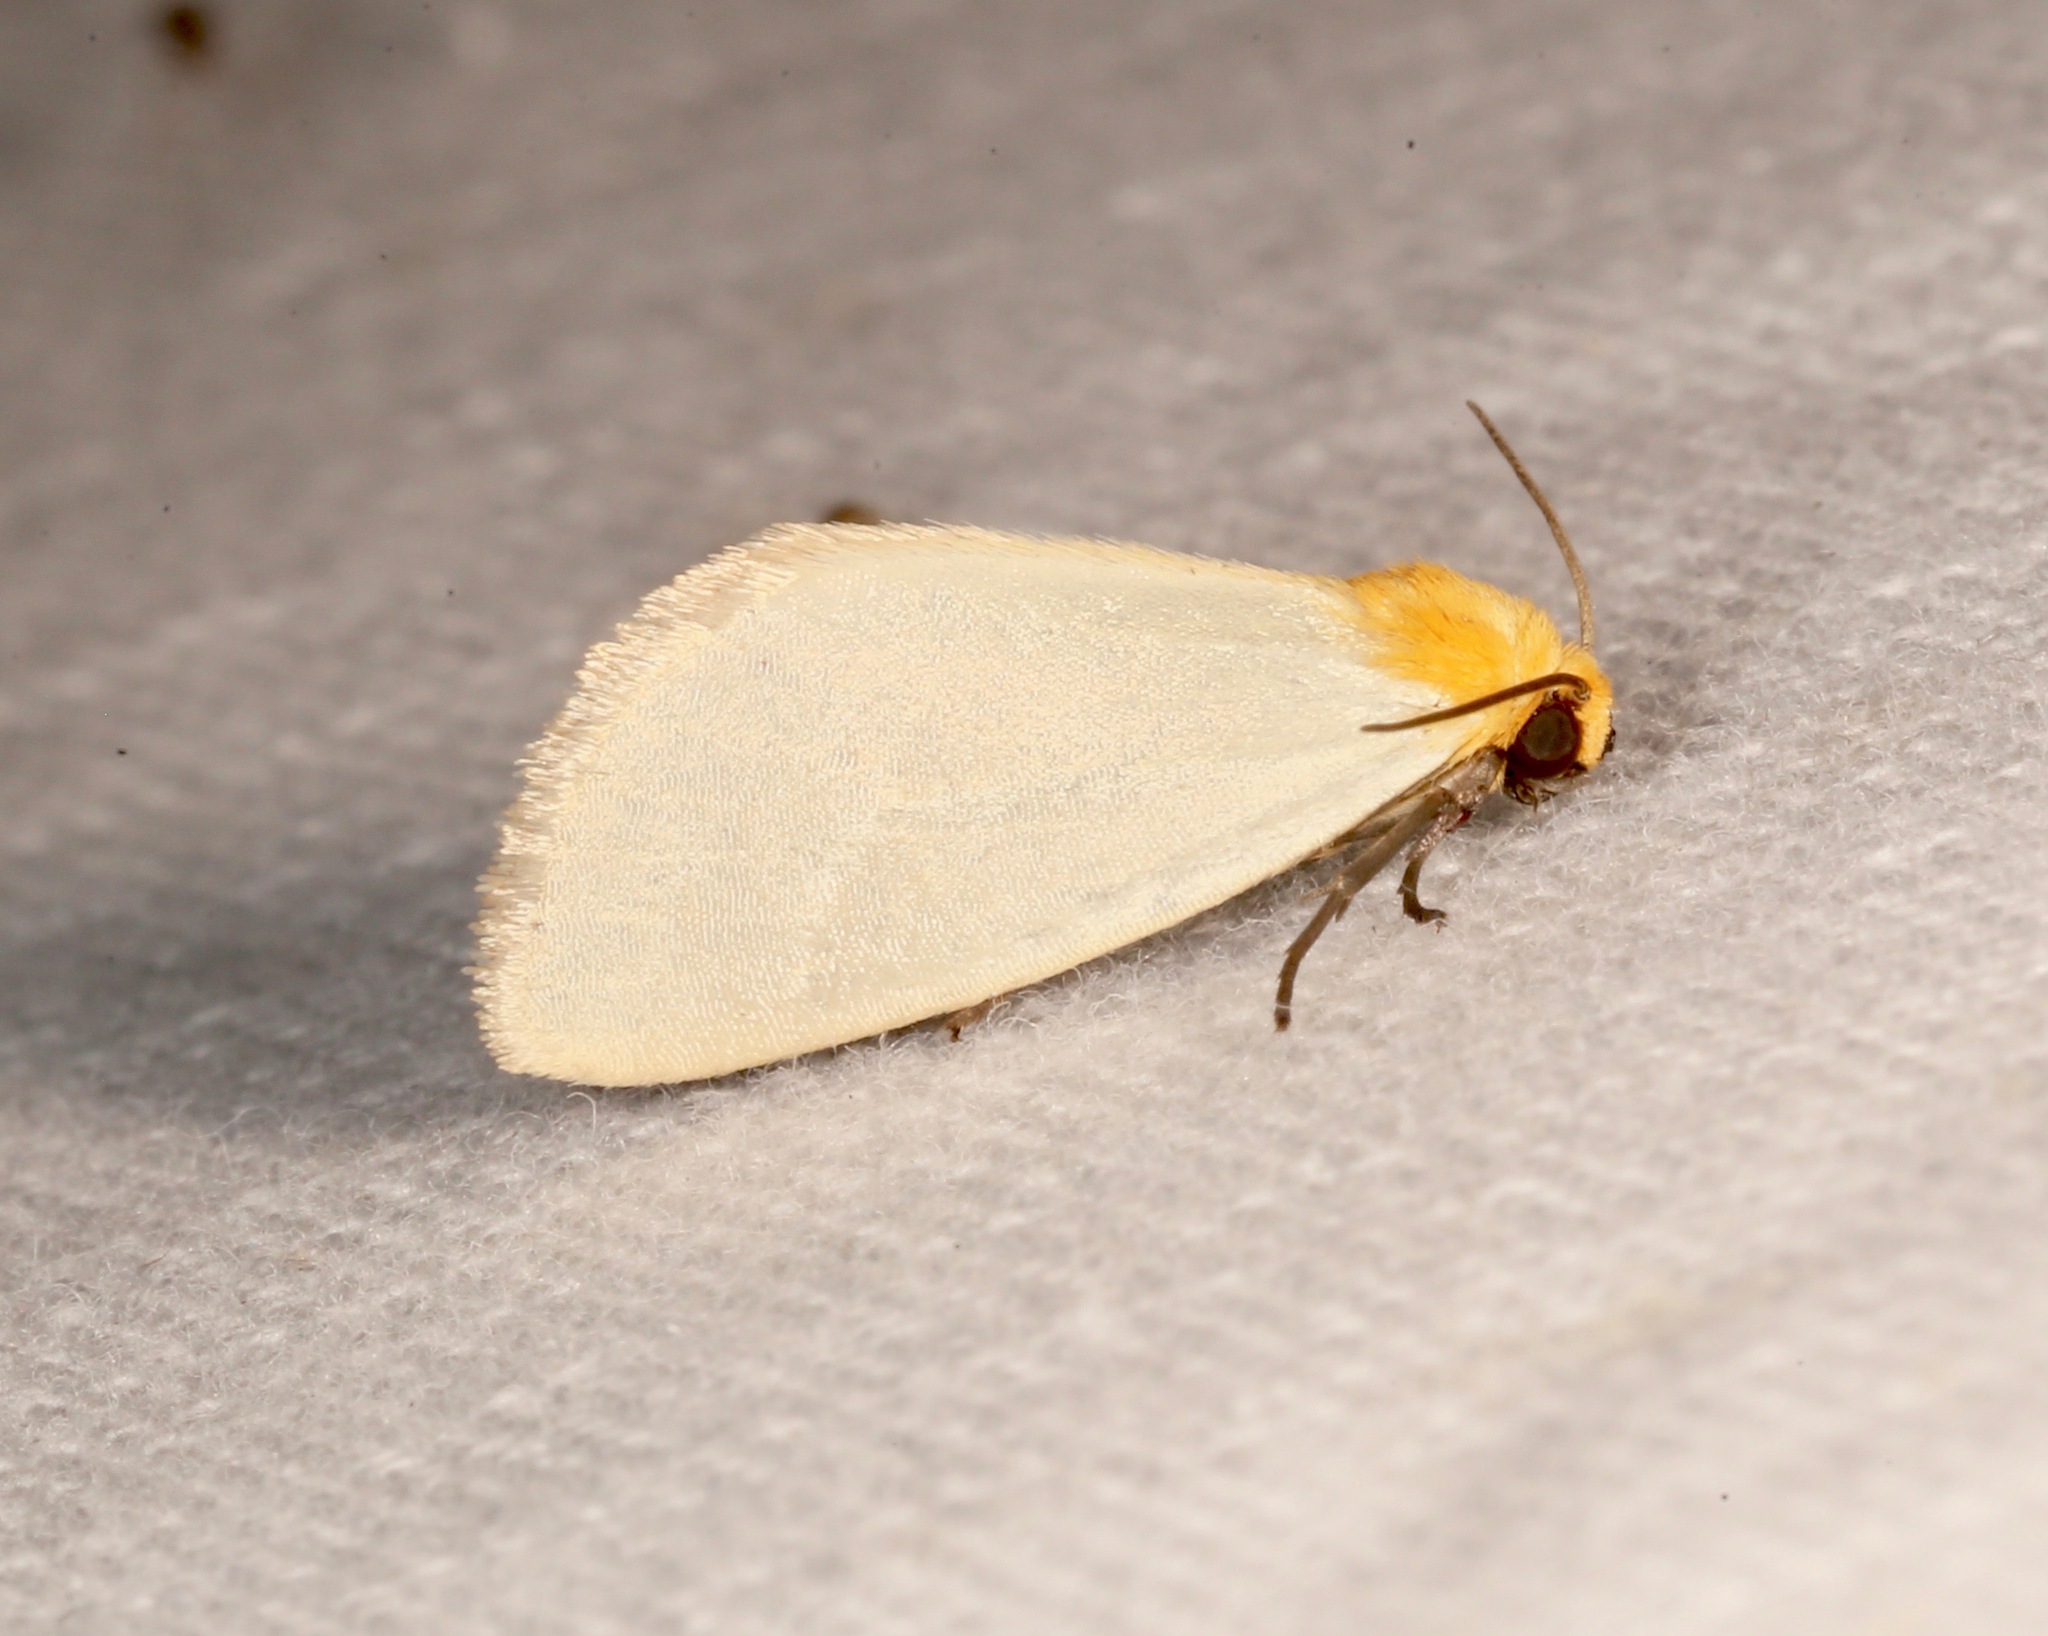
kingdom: Animalia
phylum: Arthropoda
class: Insecta
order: Lepidoptera
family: Noctuidae
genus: Chrysoecia
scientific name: Chrysoecia thoracica
